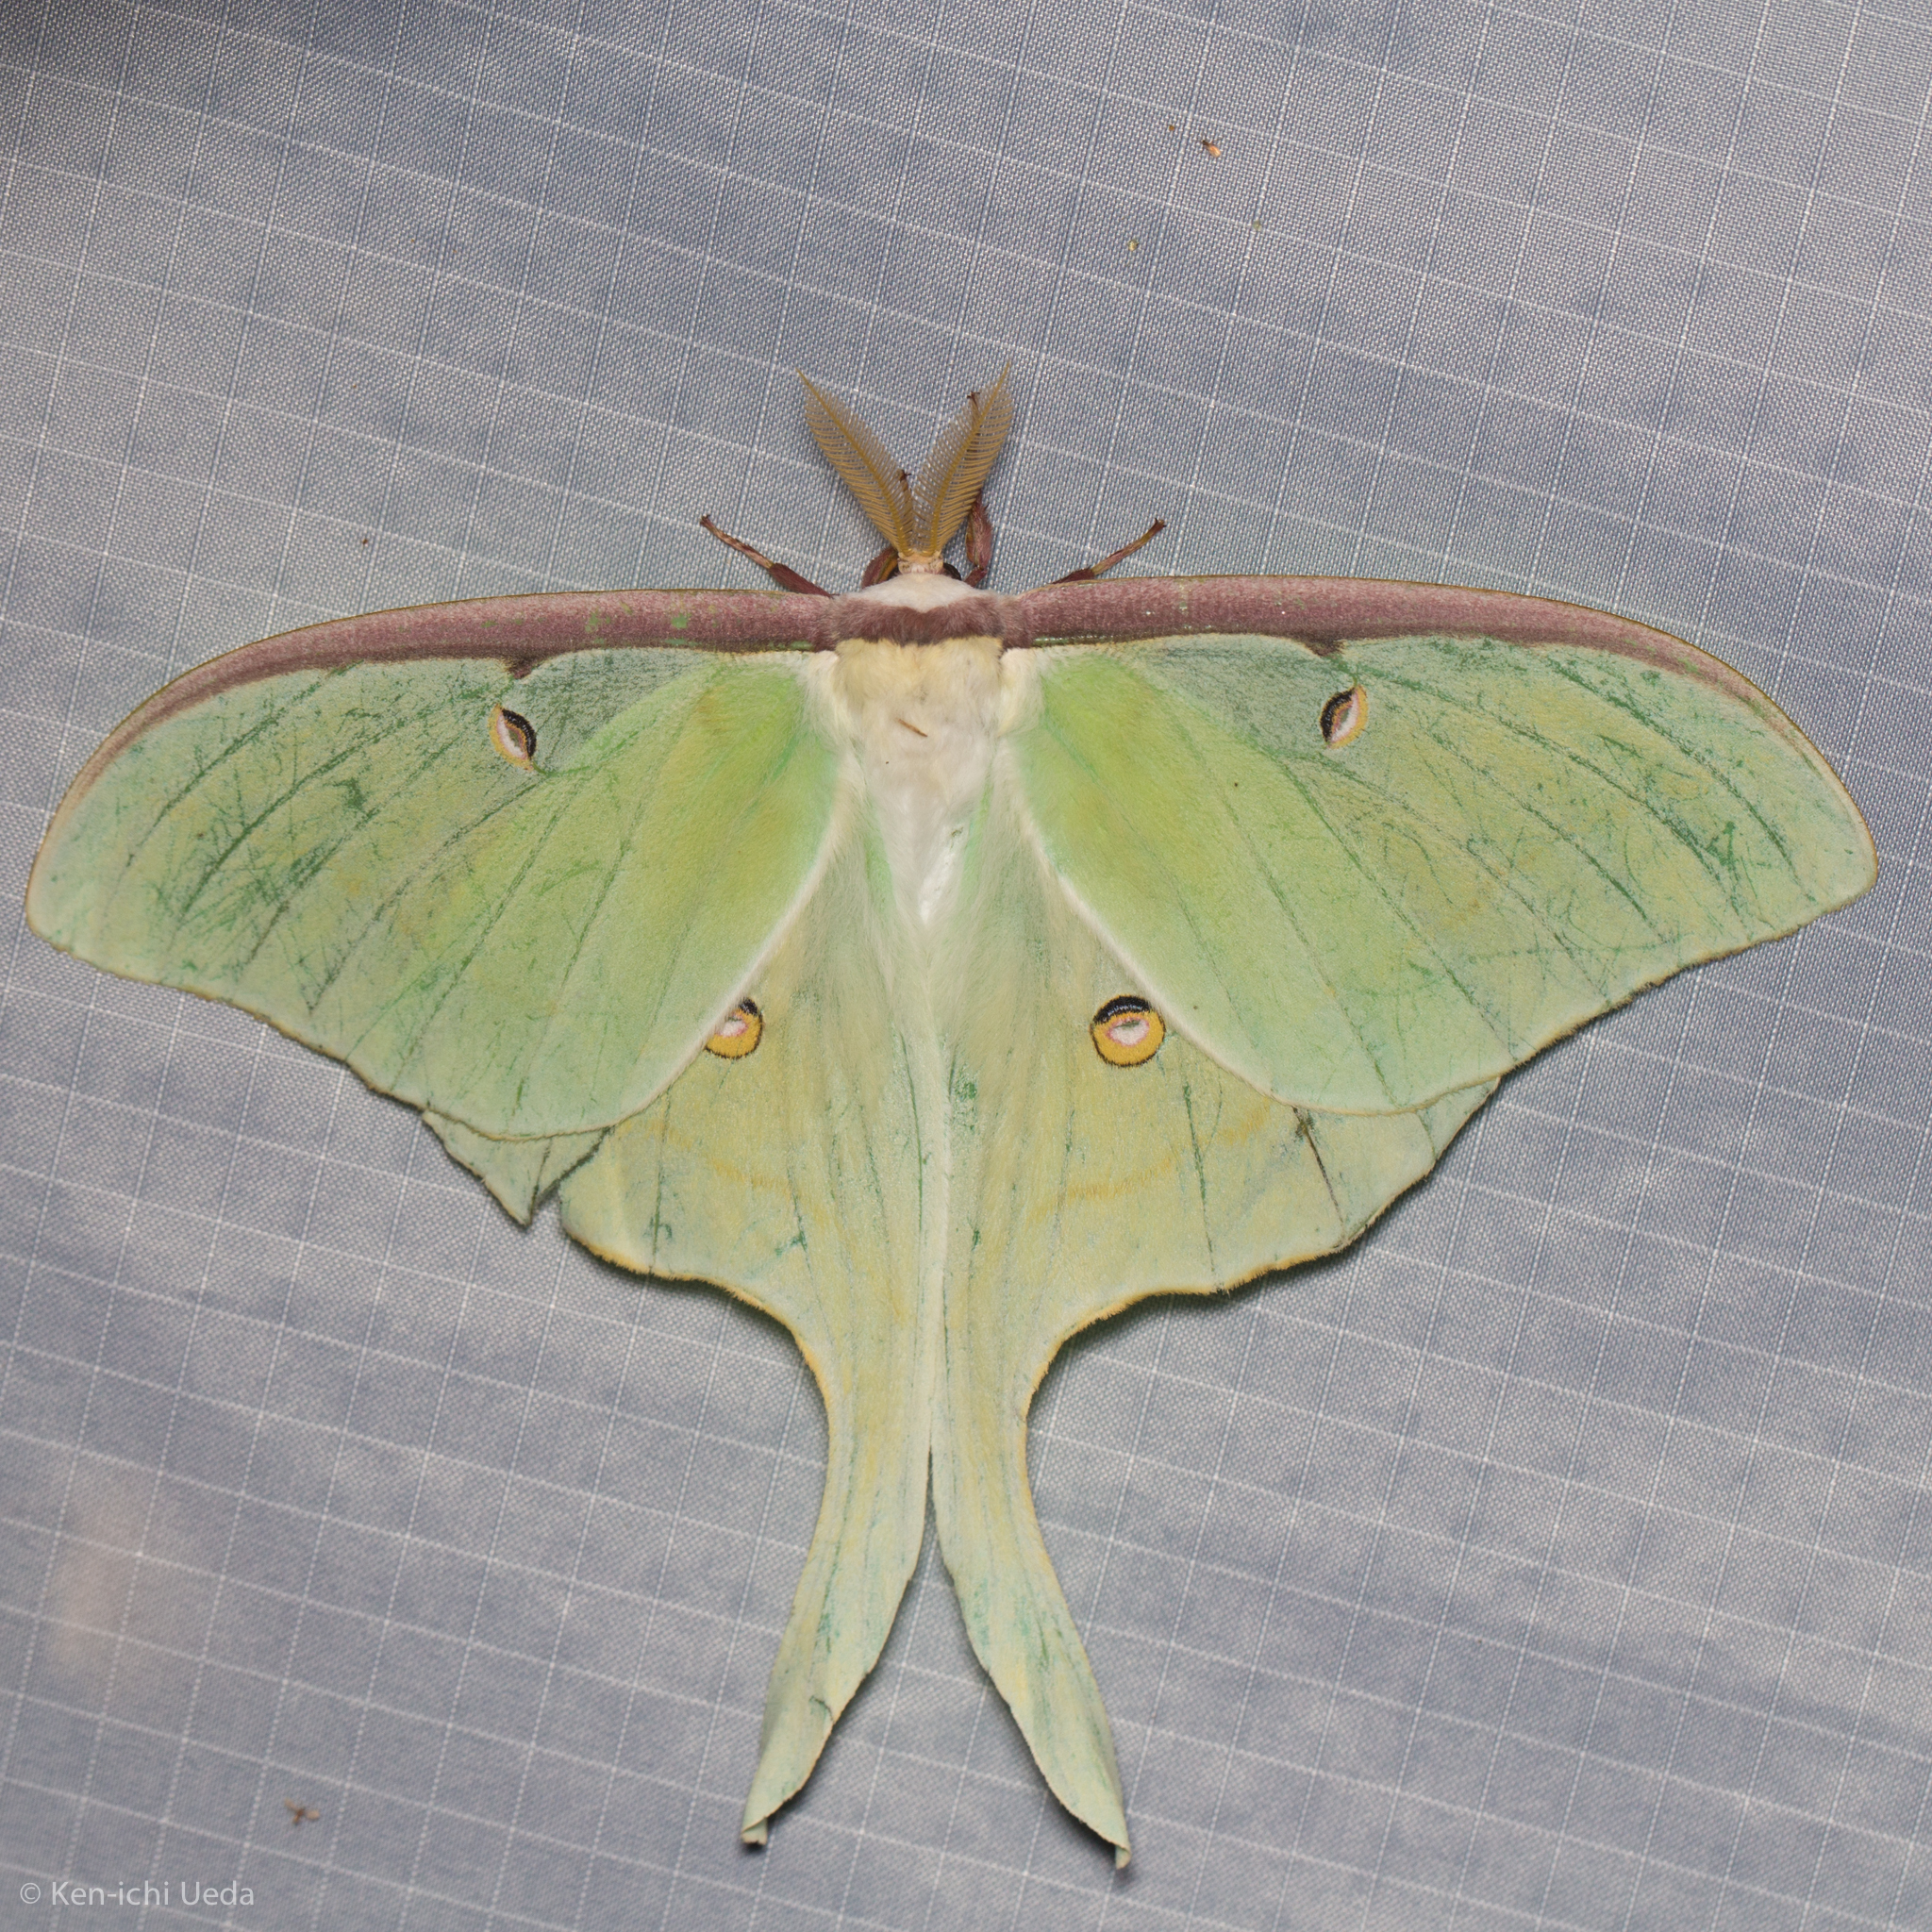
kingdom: Animalia
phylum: Arthropoda
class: Insecta
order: Lepidoptera
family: Saturniidae
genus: Actias
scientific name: Actias luna
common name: Luna moth
